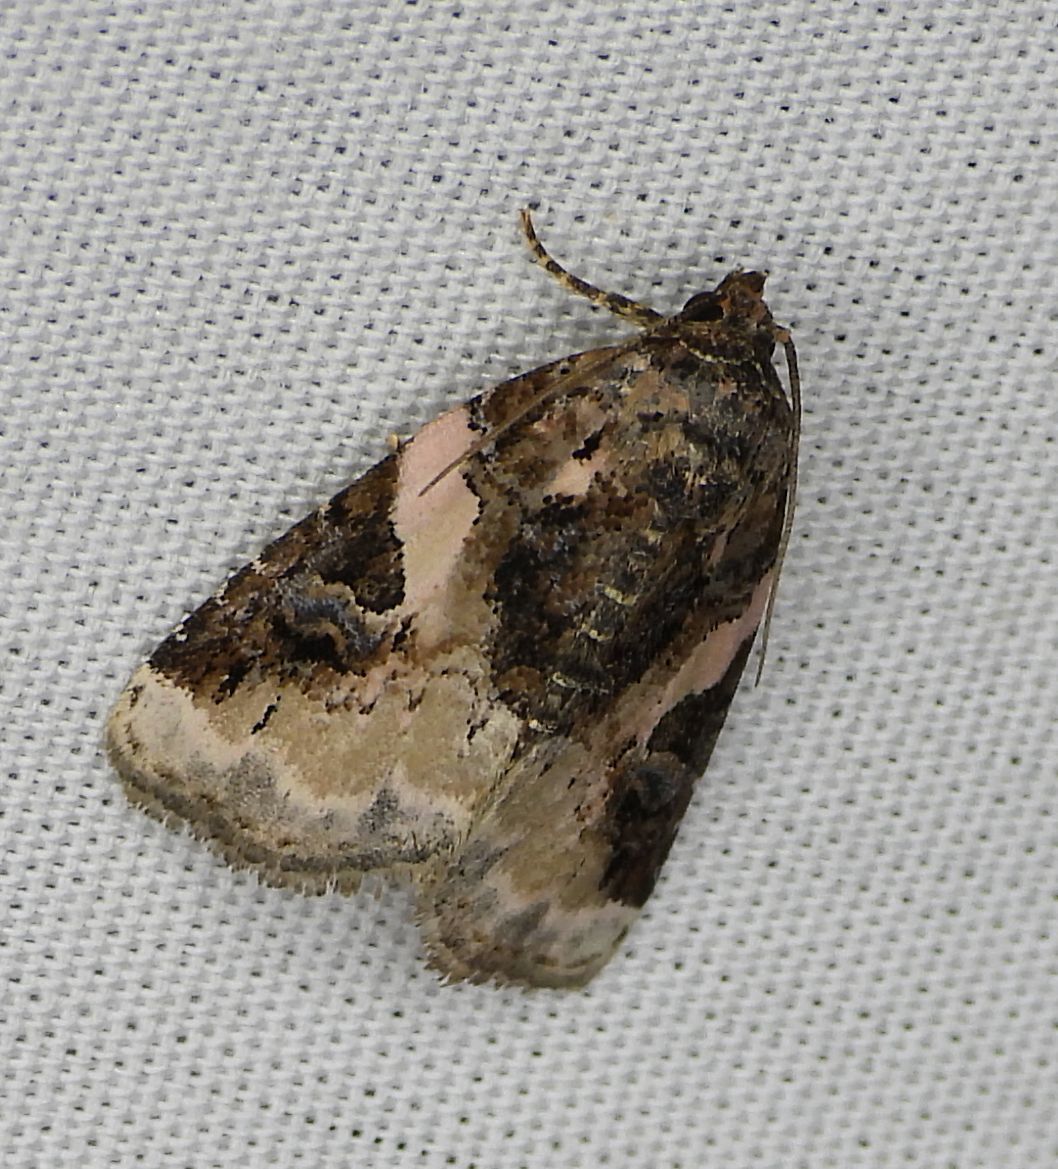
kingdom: Animalia
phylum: Arthropoda
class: Insecta
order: Lepidoptera
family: Noctuidae
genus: Pseudeustrotia
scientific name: Pseudeustrotia carneola
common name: Pink-barred lithacodia moth
